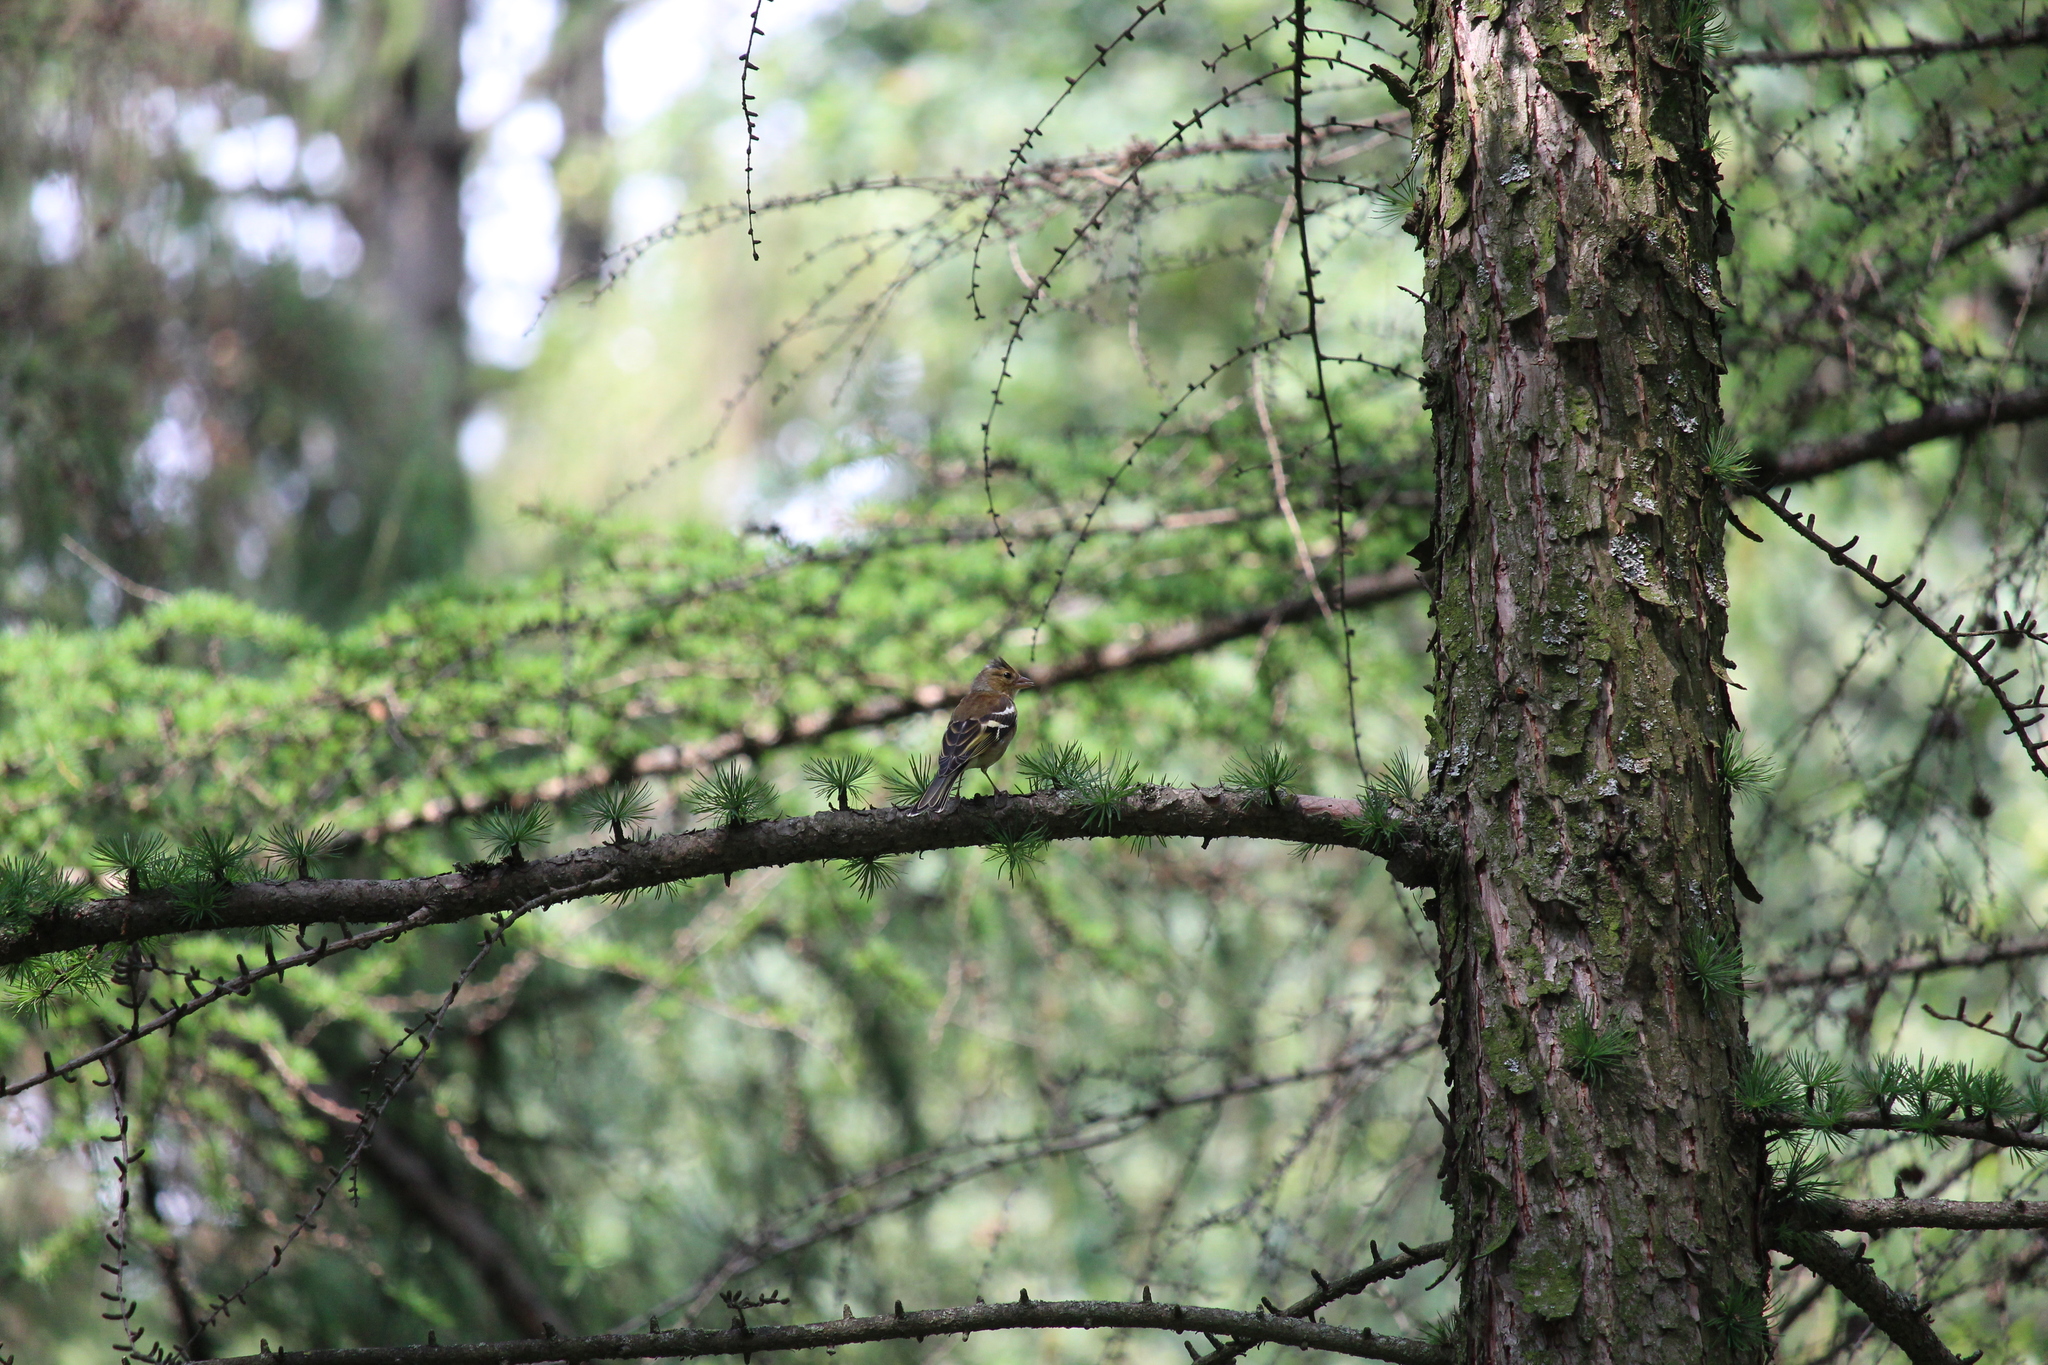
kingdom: Animalia
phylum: Chordata
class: Aves
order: Passeriformes
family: Fringillidae
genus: Fringilla
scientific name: Fringilla coelebs
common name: Common chaffinch
